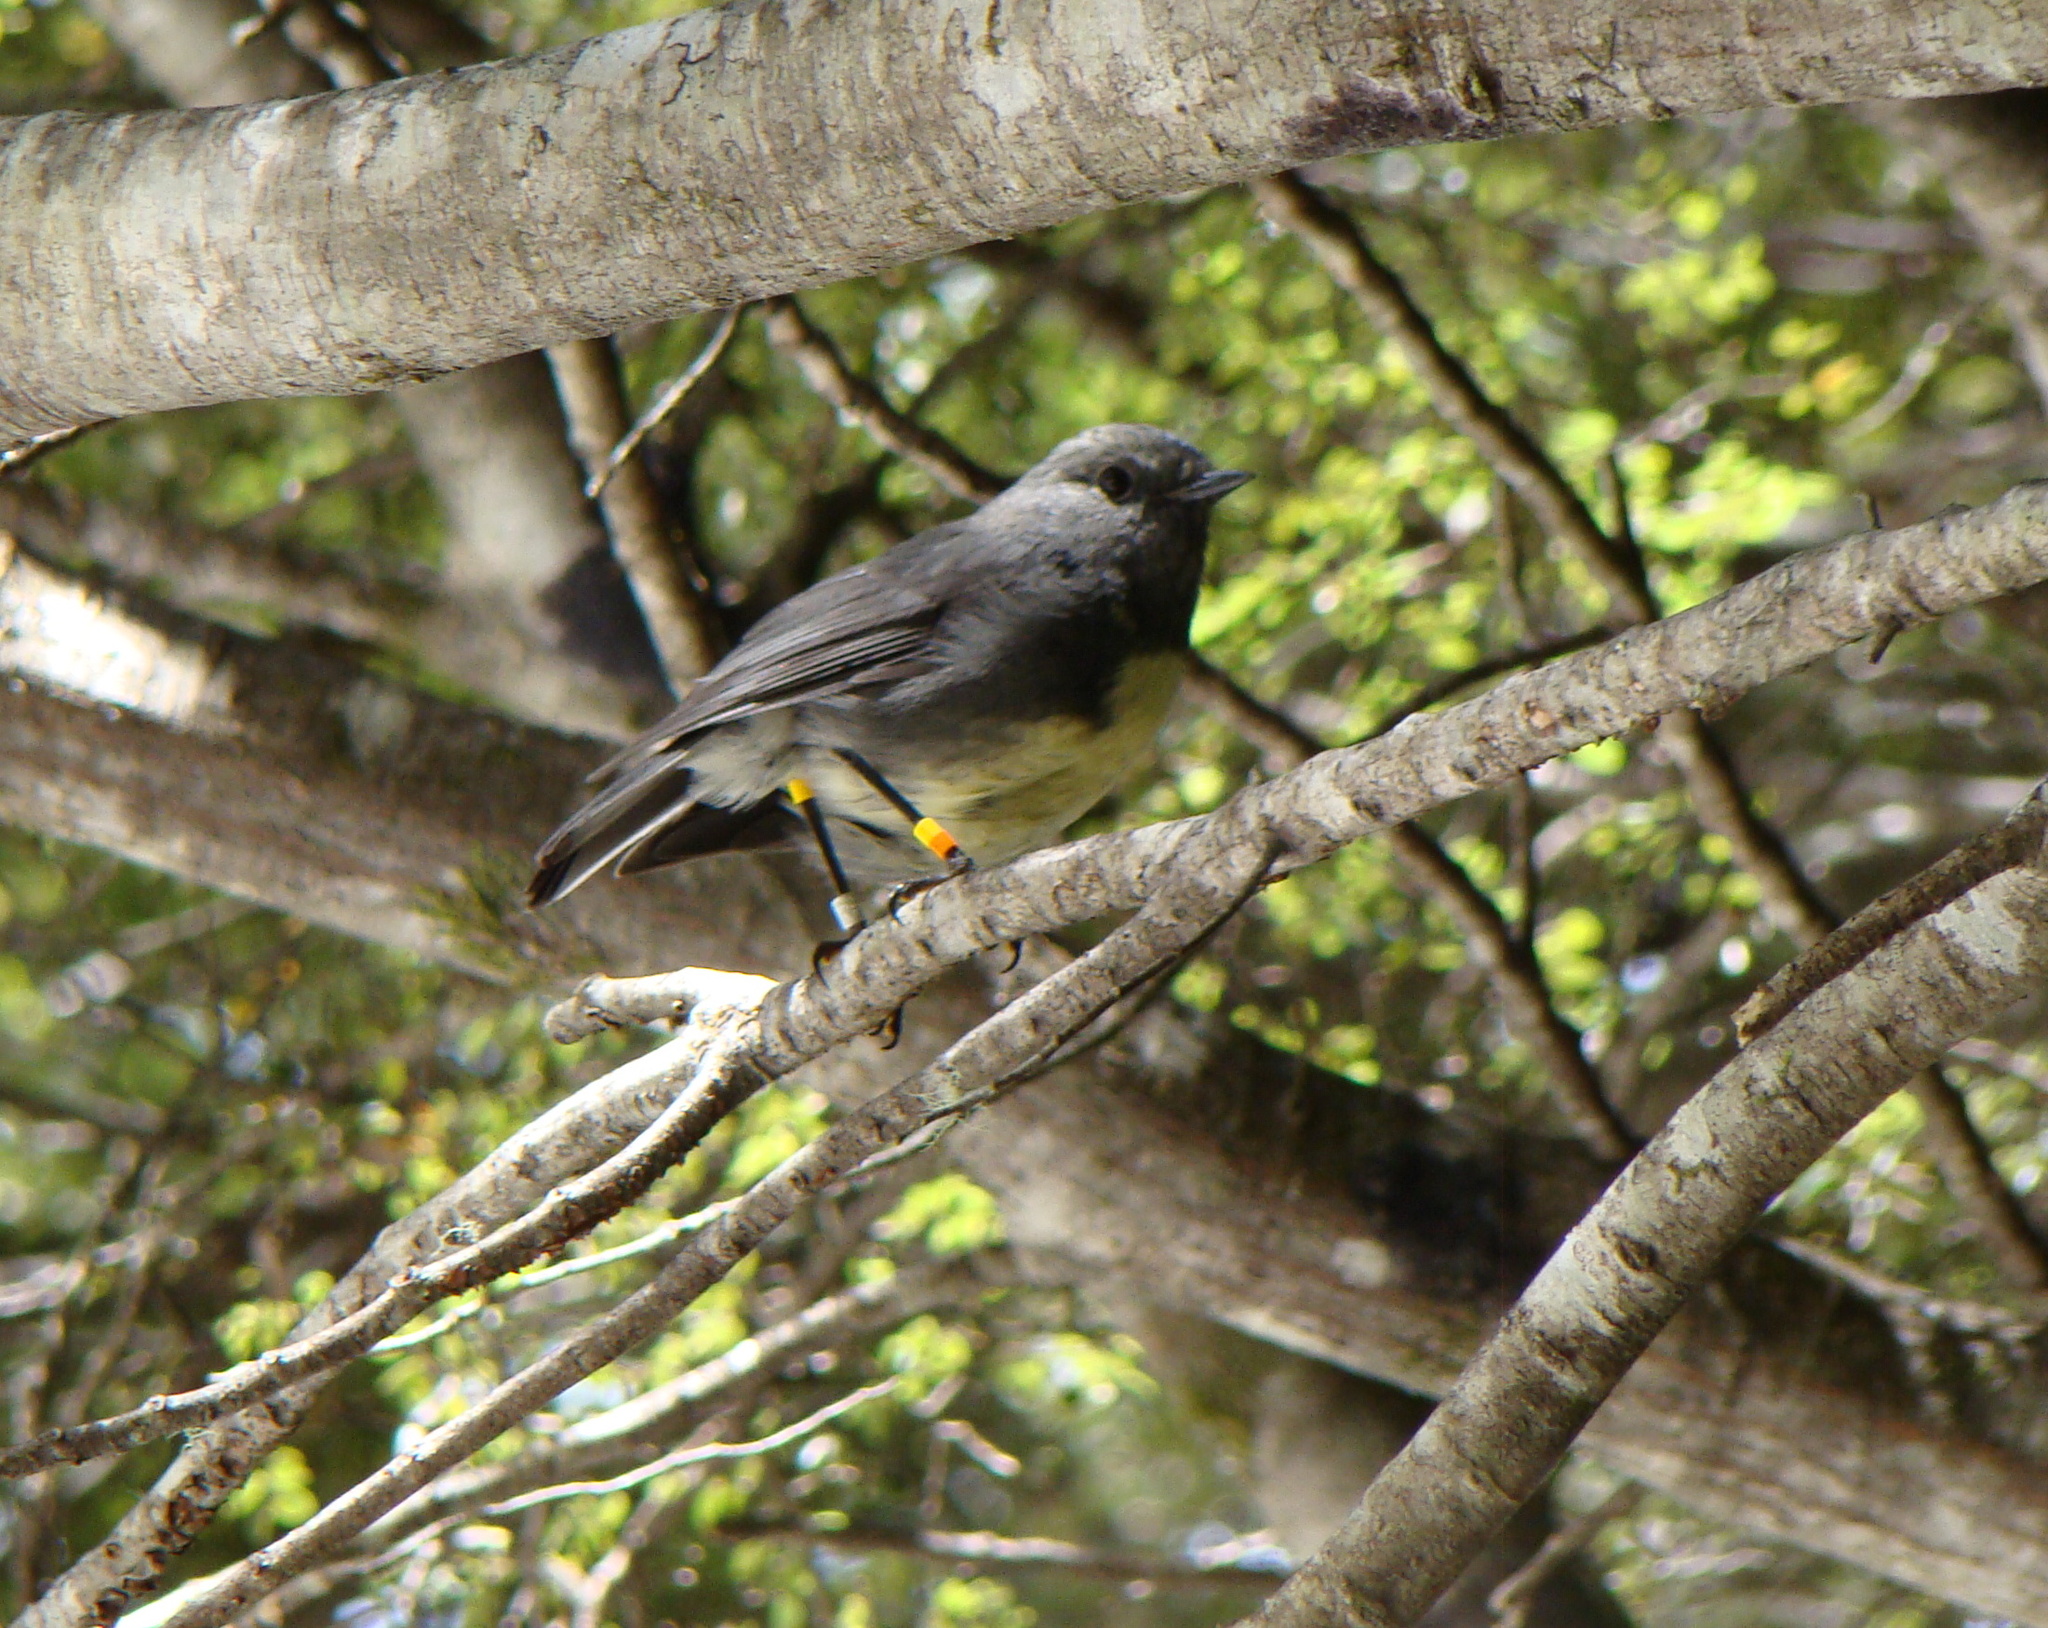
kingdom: Animalia
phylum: Chordata
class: Aves
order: Passeriformes
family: Petroicidae
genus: Petroica
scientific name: Petroica australis
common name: New zealand robin
